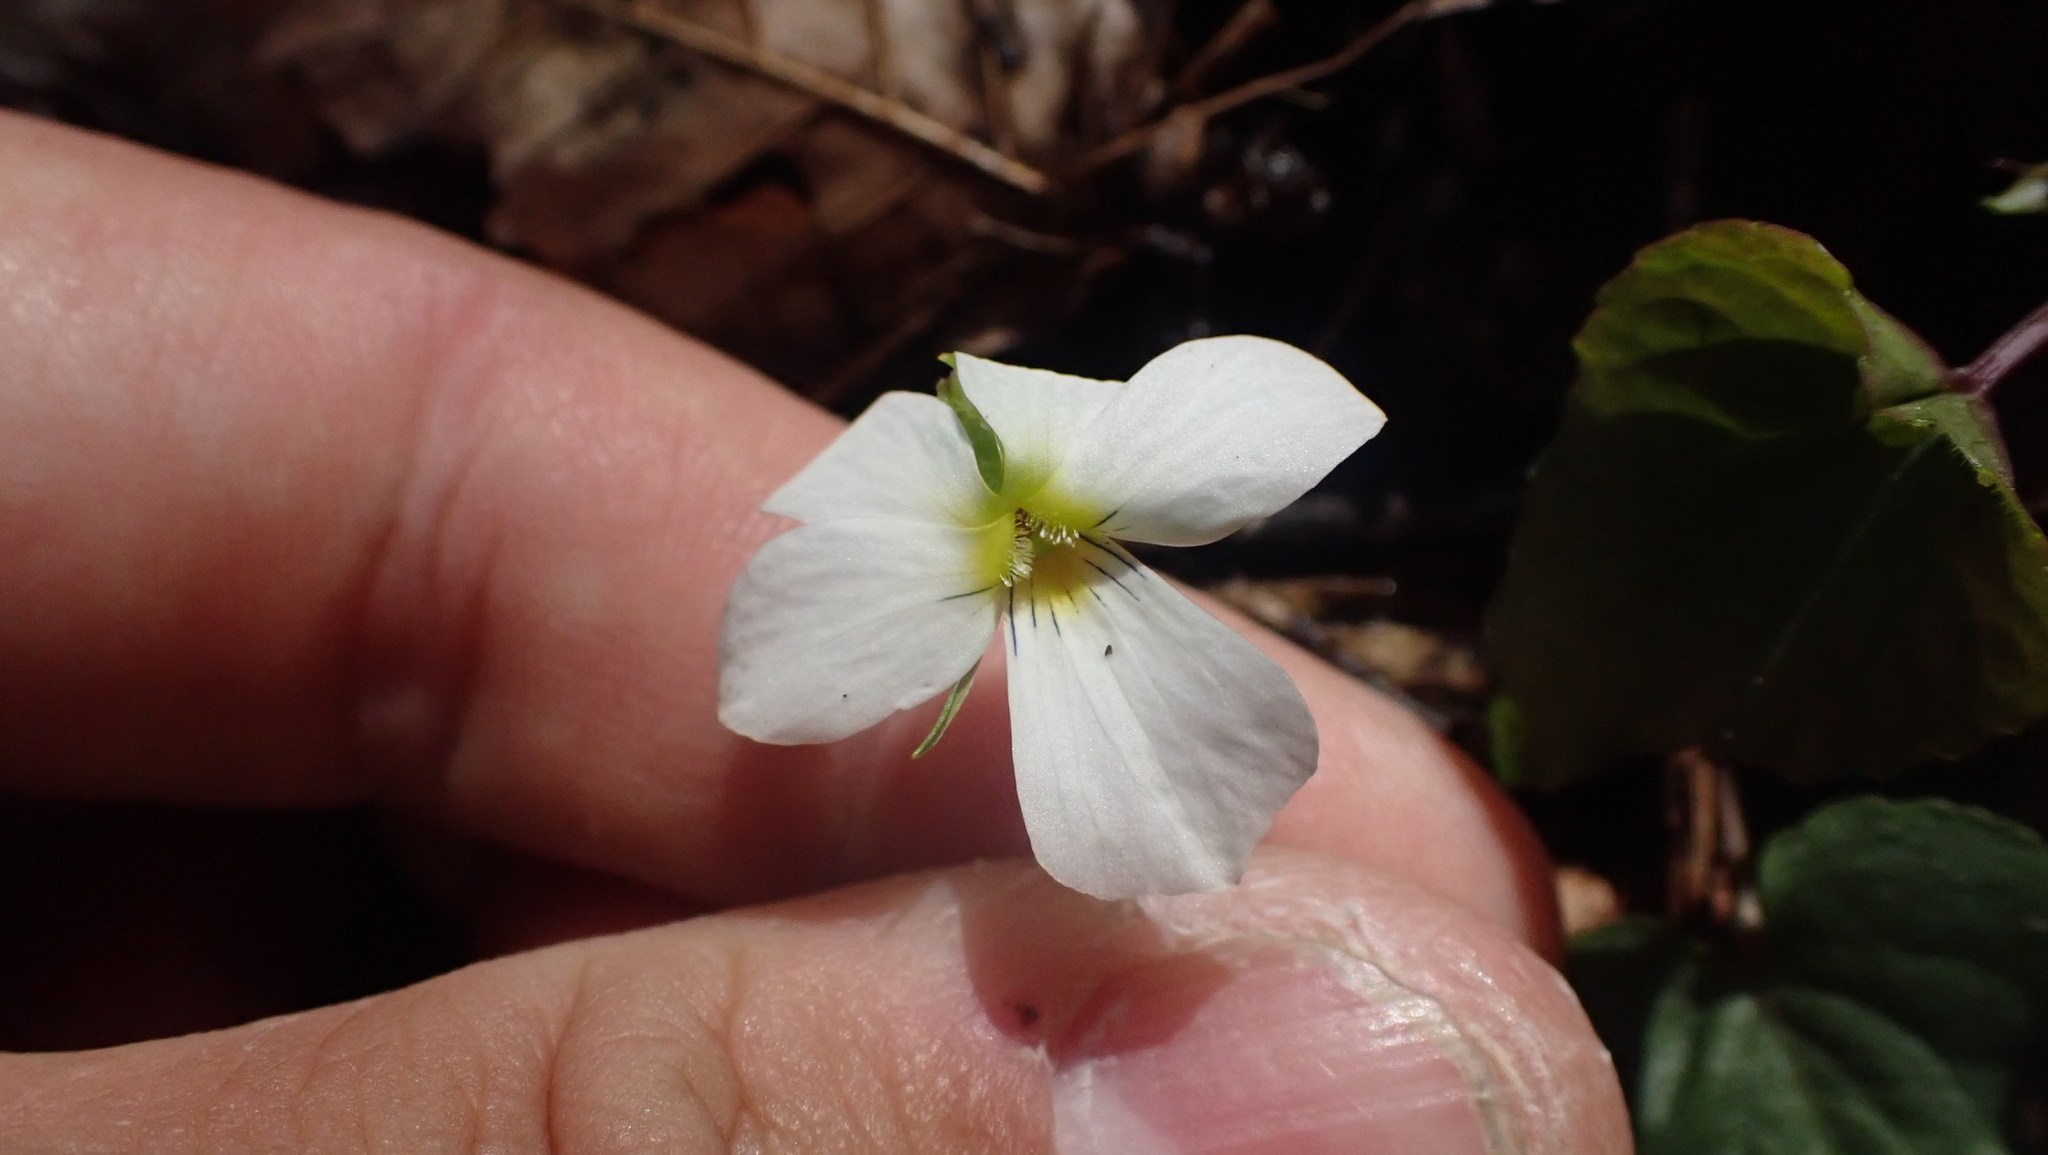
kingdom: Plantae
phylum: Tracheophyta
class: Magnoliopsida
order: Malpighiales
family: Violaceae
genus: Viola
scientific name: Viola canadensis
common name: Canada violet
